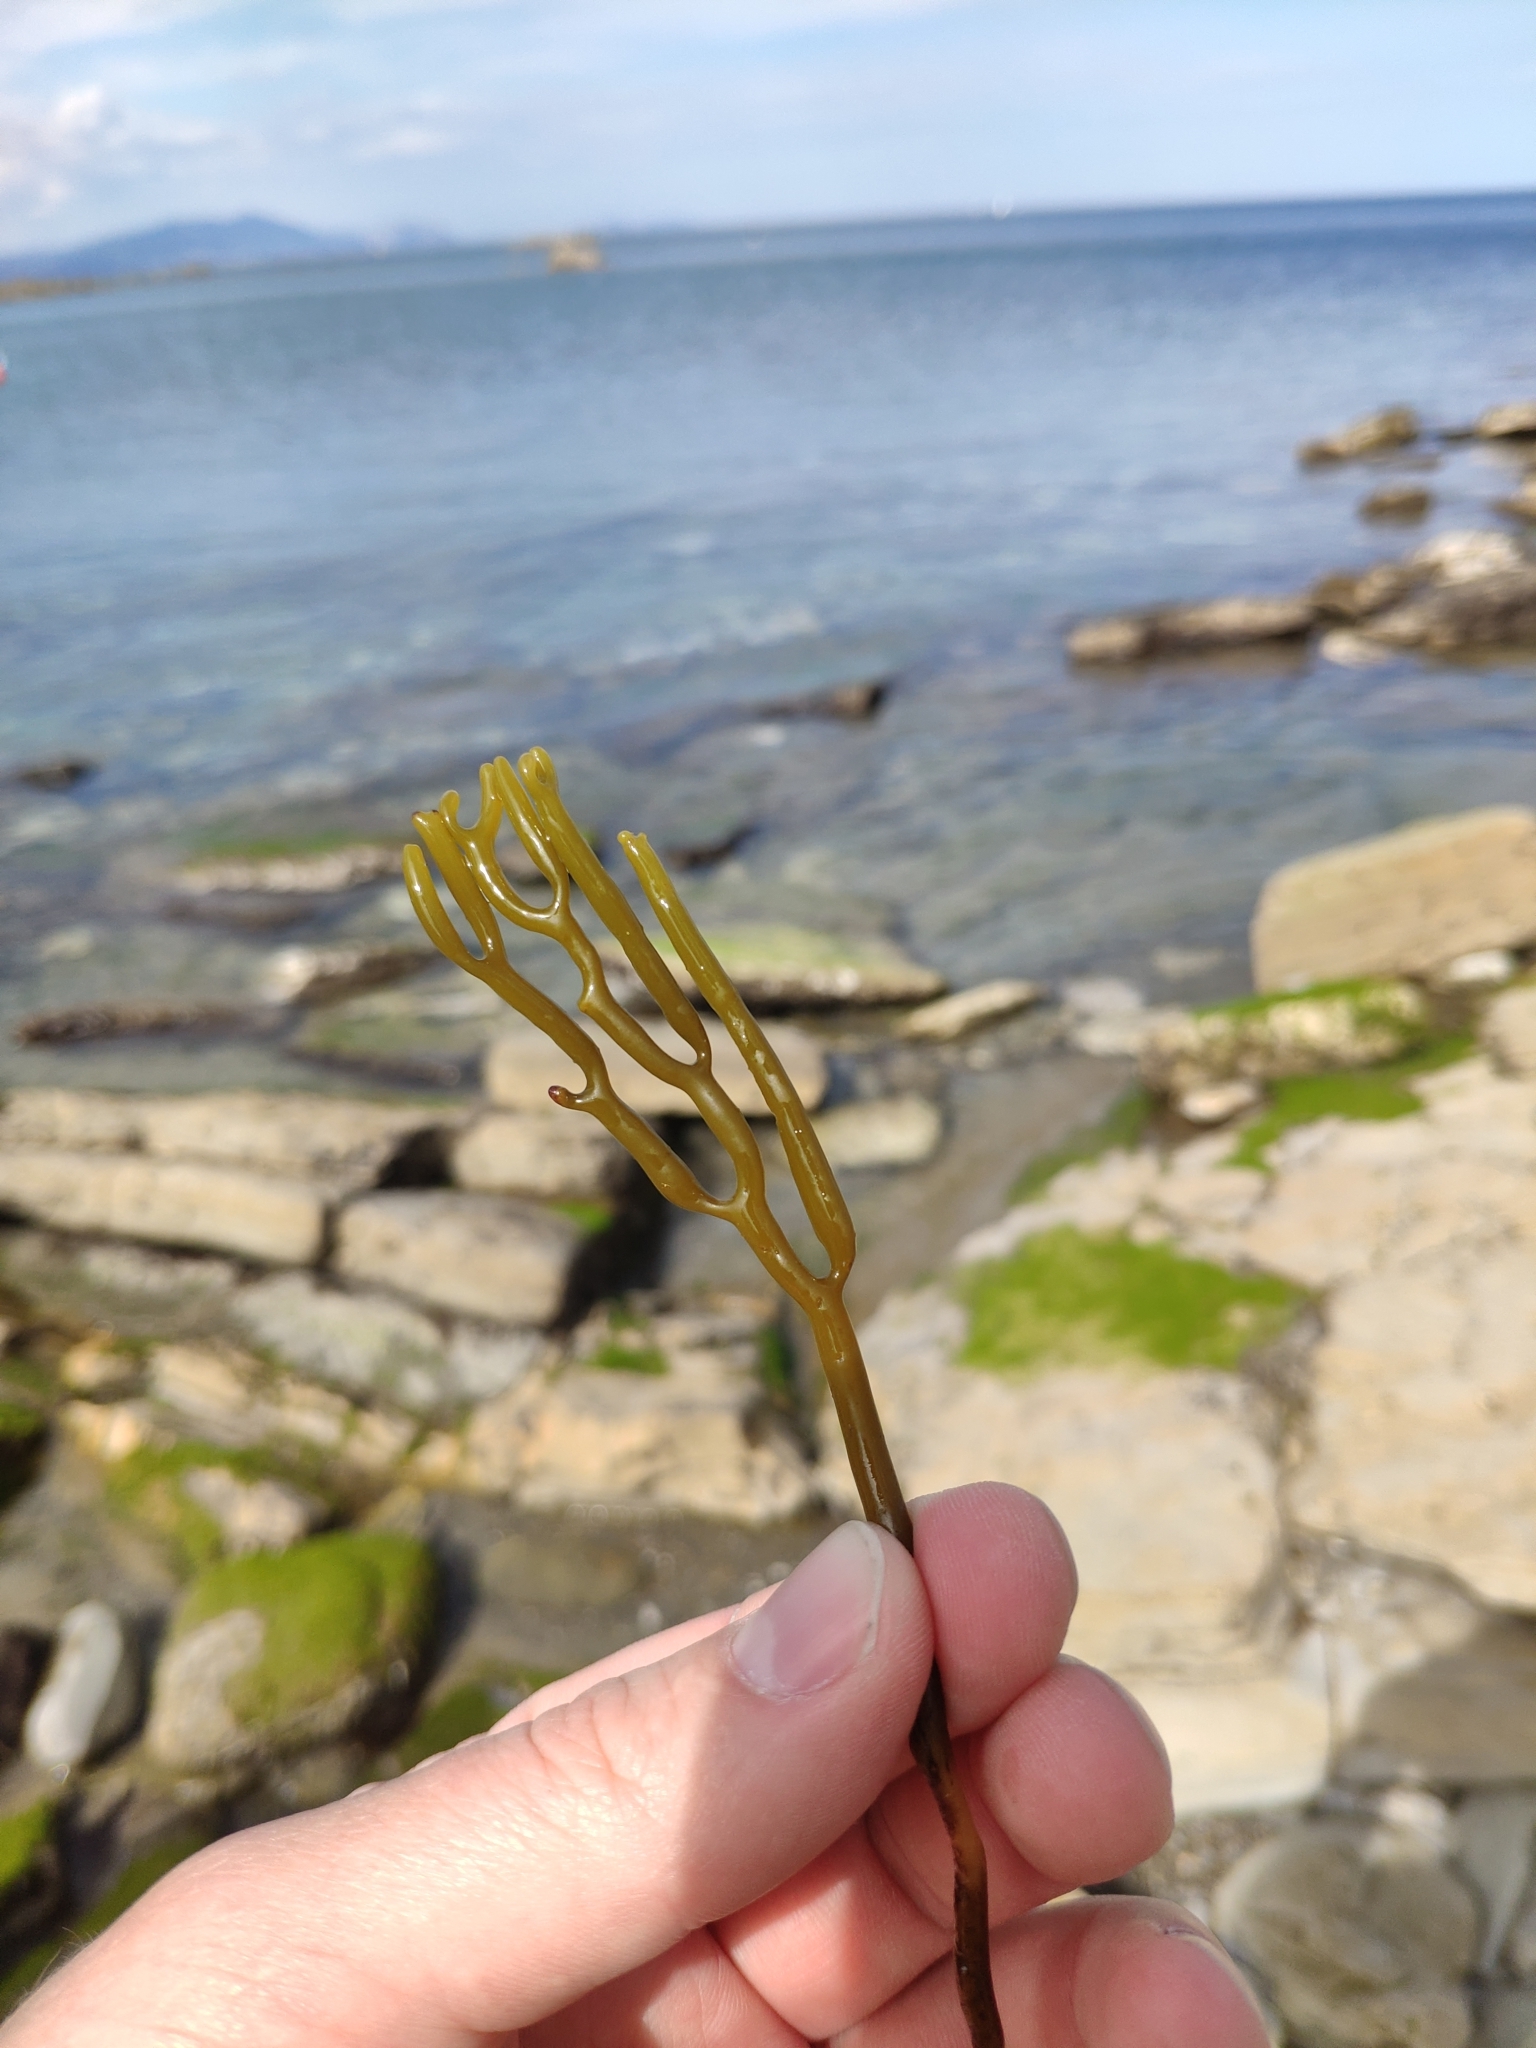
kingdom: Chromista
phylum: Ochrophyta
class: Phaeophyceae
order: Fucales
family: Sargassaceae
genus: Bifurcaria
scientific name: Bifurcaria bifurcata
